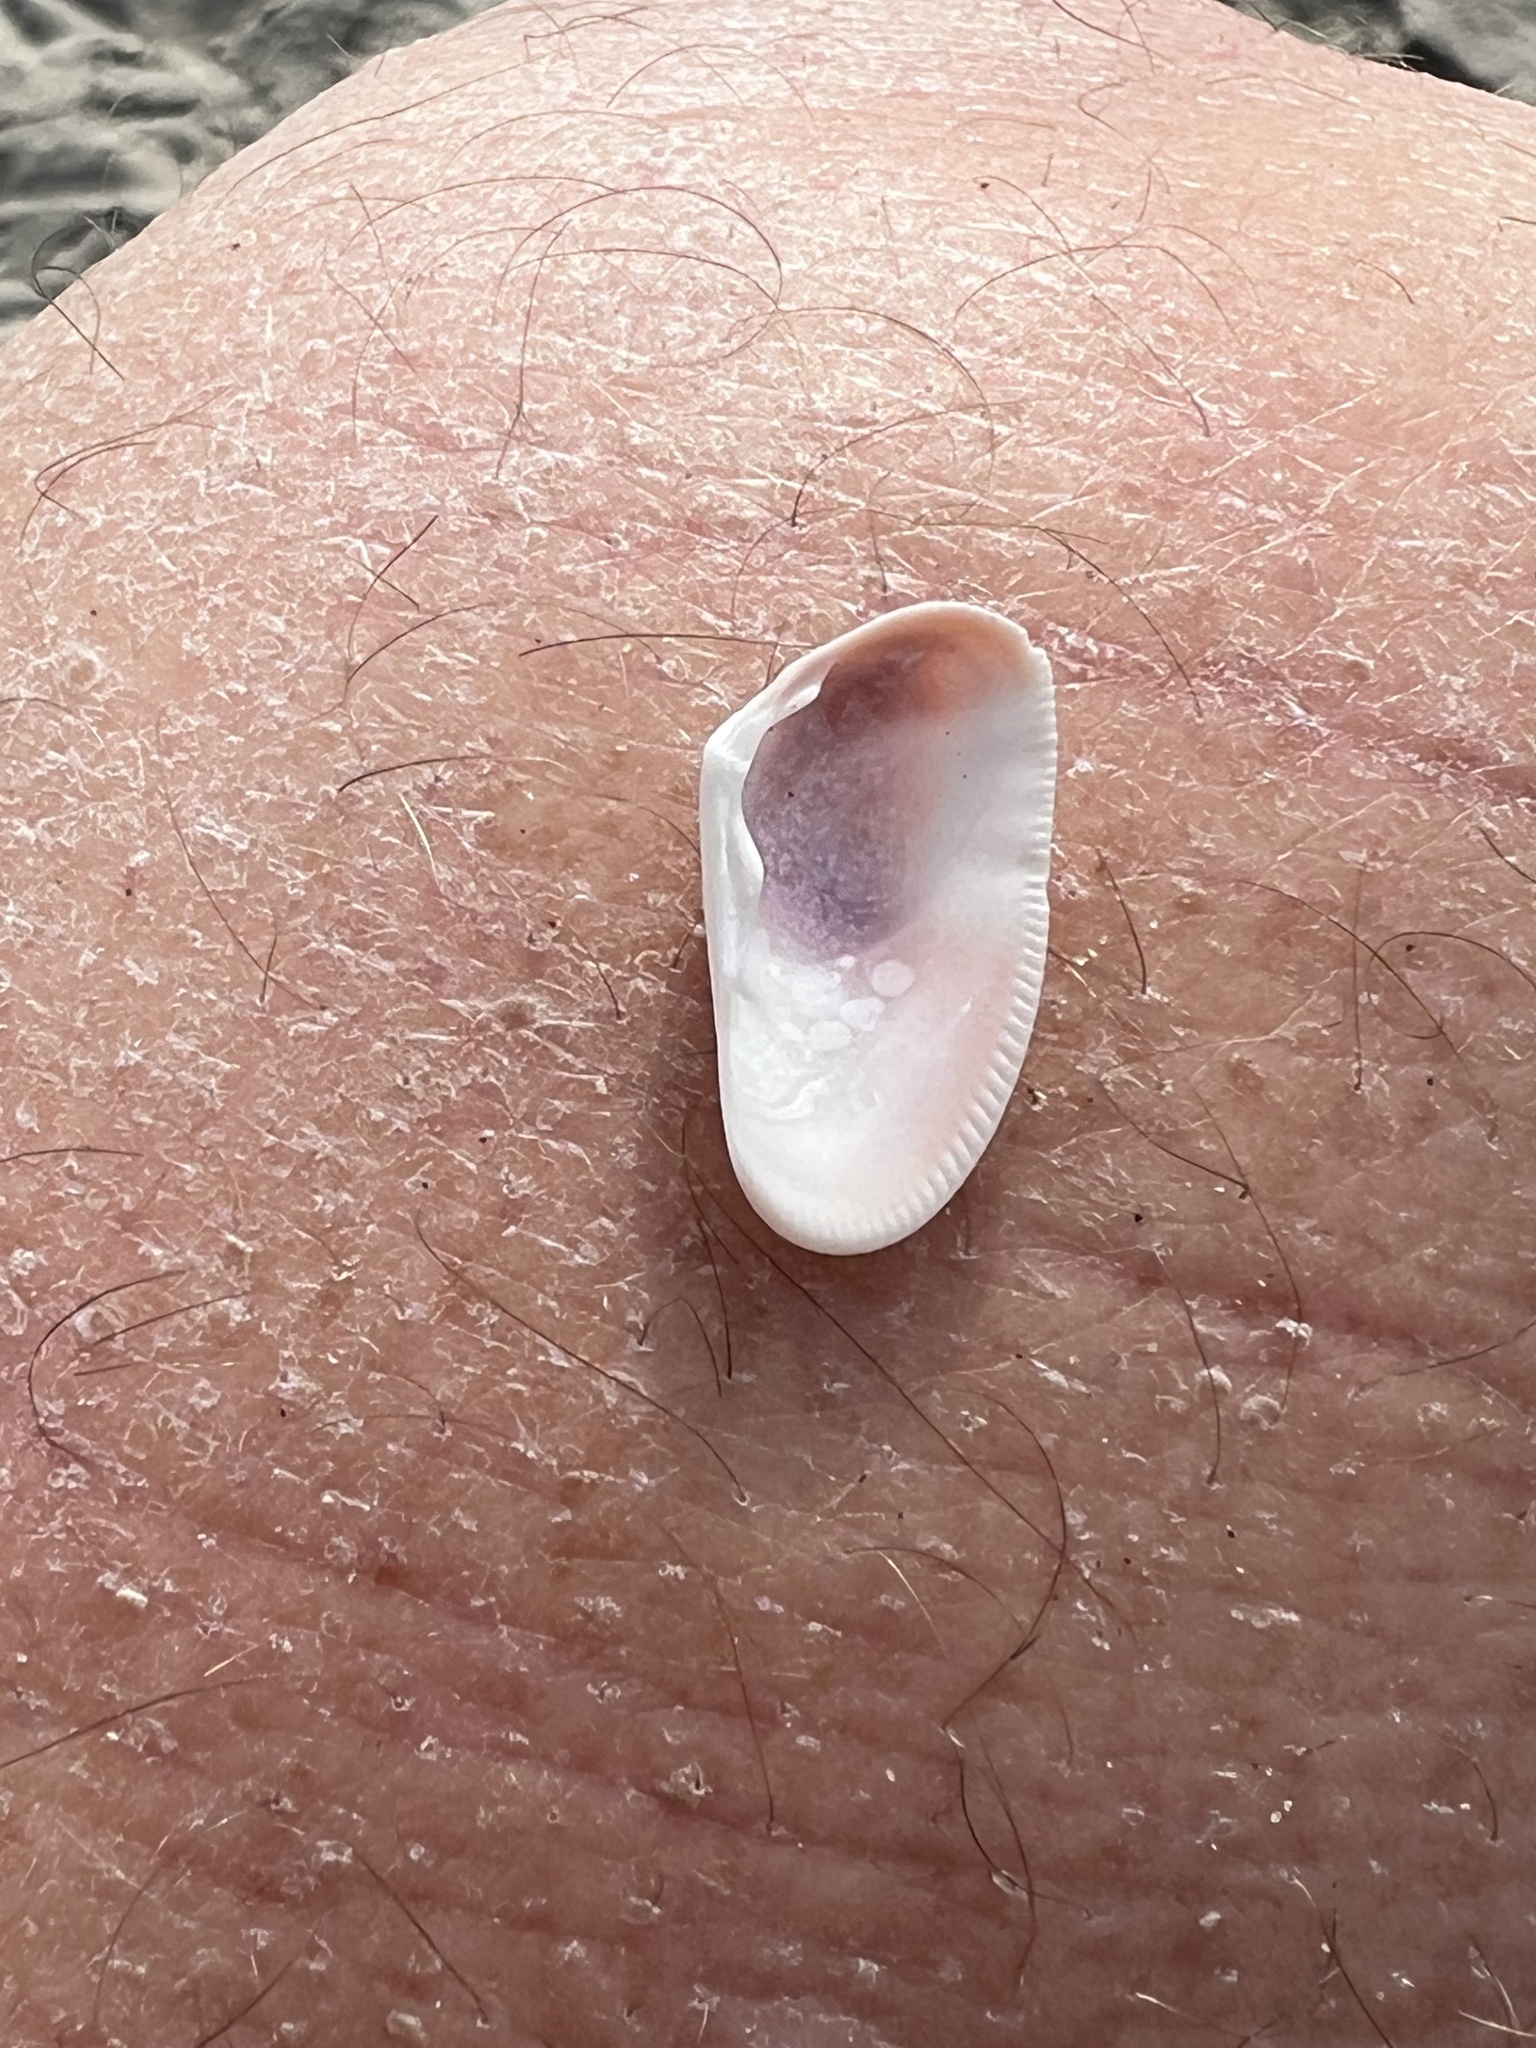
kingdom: Animalia
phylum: Mollusca
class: Bivalvia
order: Cardiida
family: Donacidae
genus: Donax
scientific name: Donax californicus
